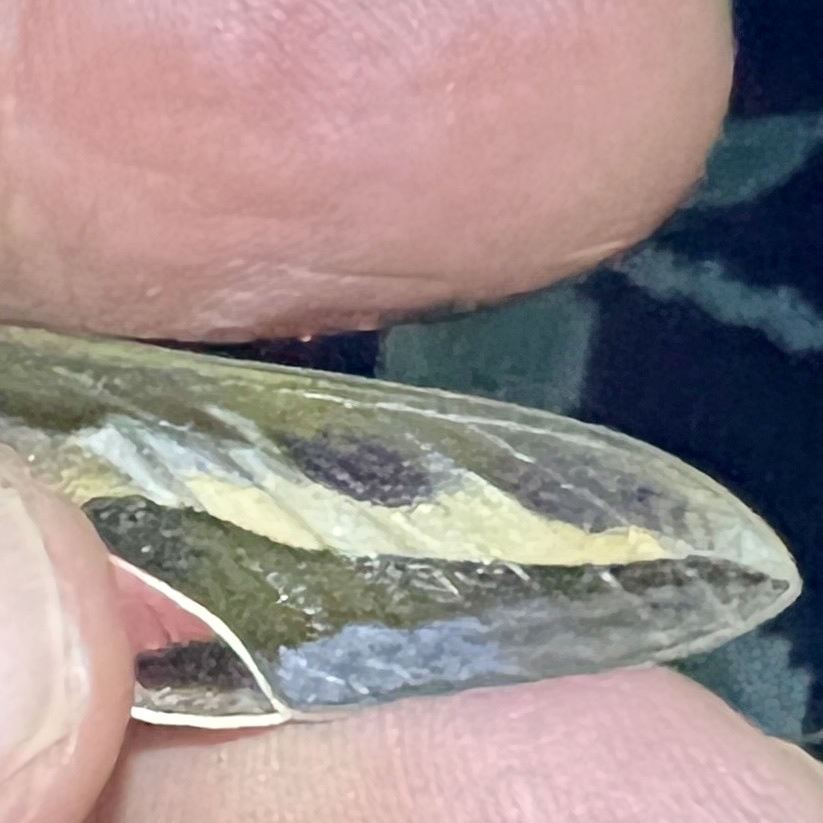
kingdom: Animalia
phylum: Arthropoda
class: Insecta
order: Lepidoptera
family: Sphingidae
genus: Hyles
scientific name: Hyles gallii
